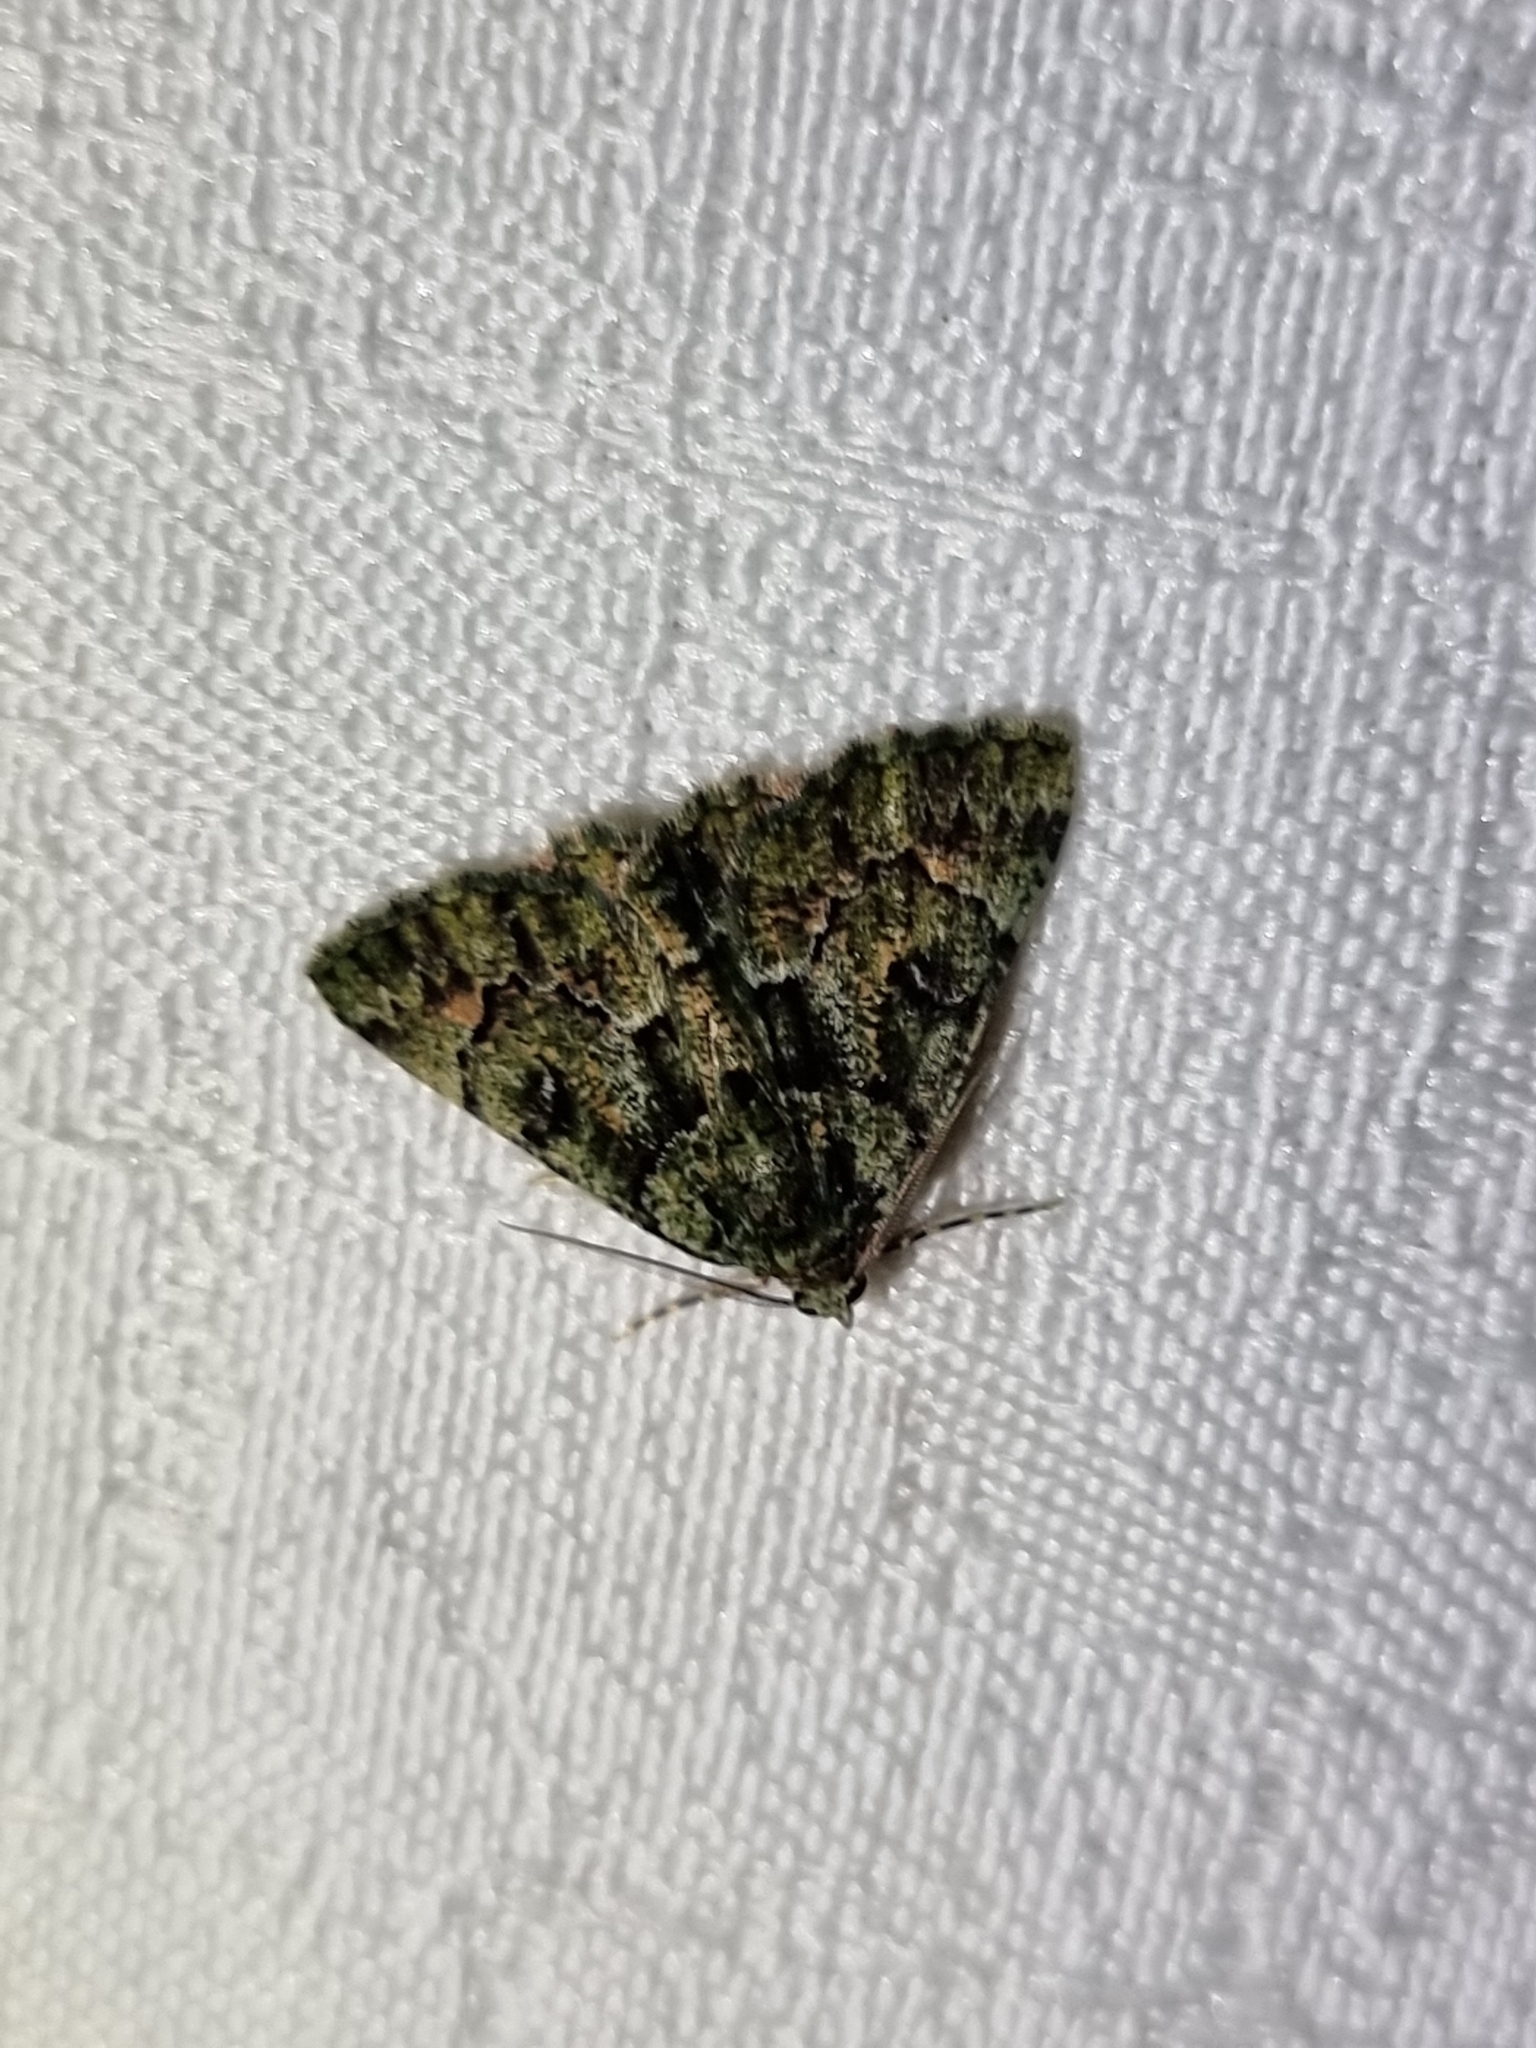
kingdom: Animalia
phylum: Arthropoda
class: Insecta
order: Lepidoptera
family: Geometridae
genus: Aeolochroma
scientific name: Aeolochroma metarhodata
